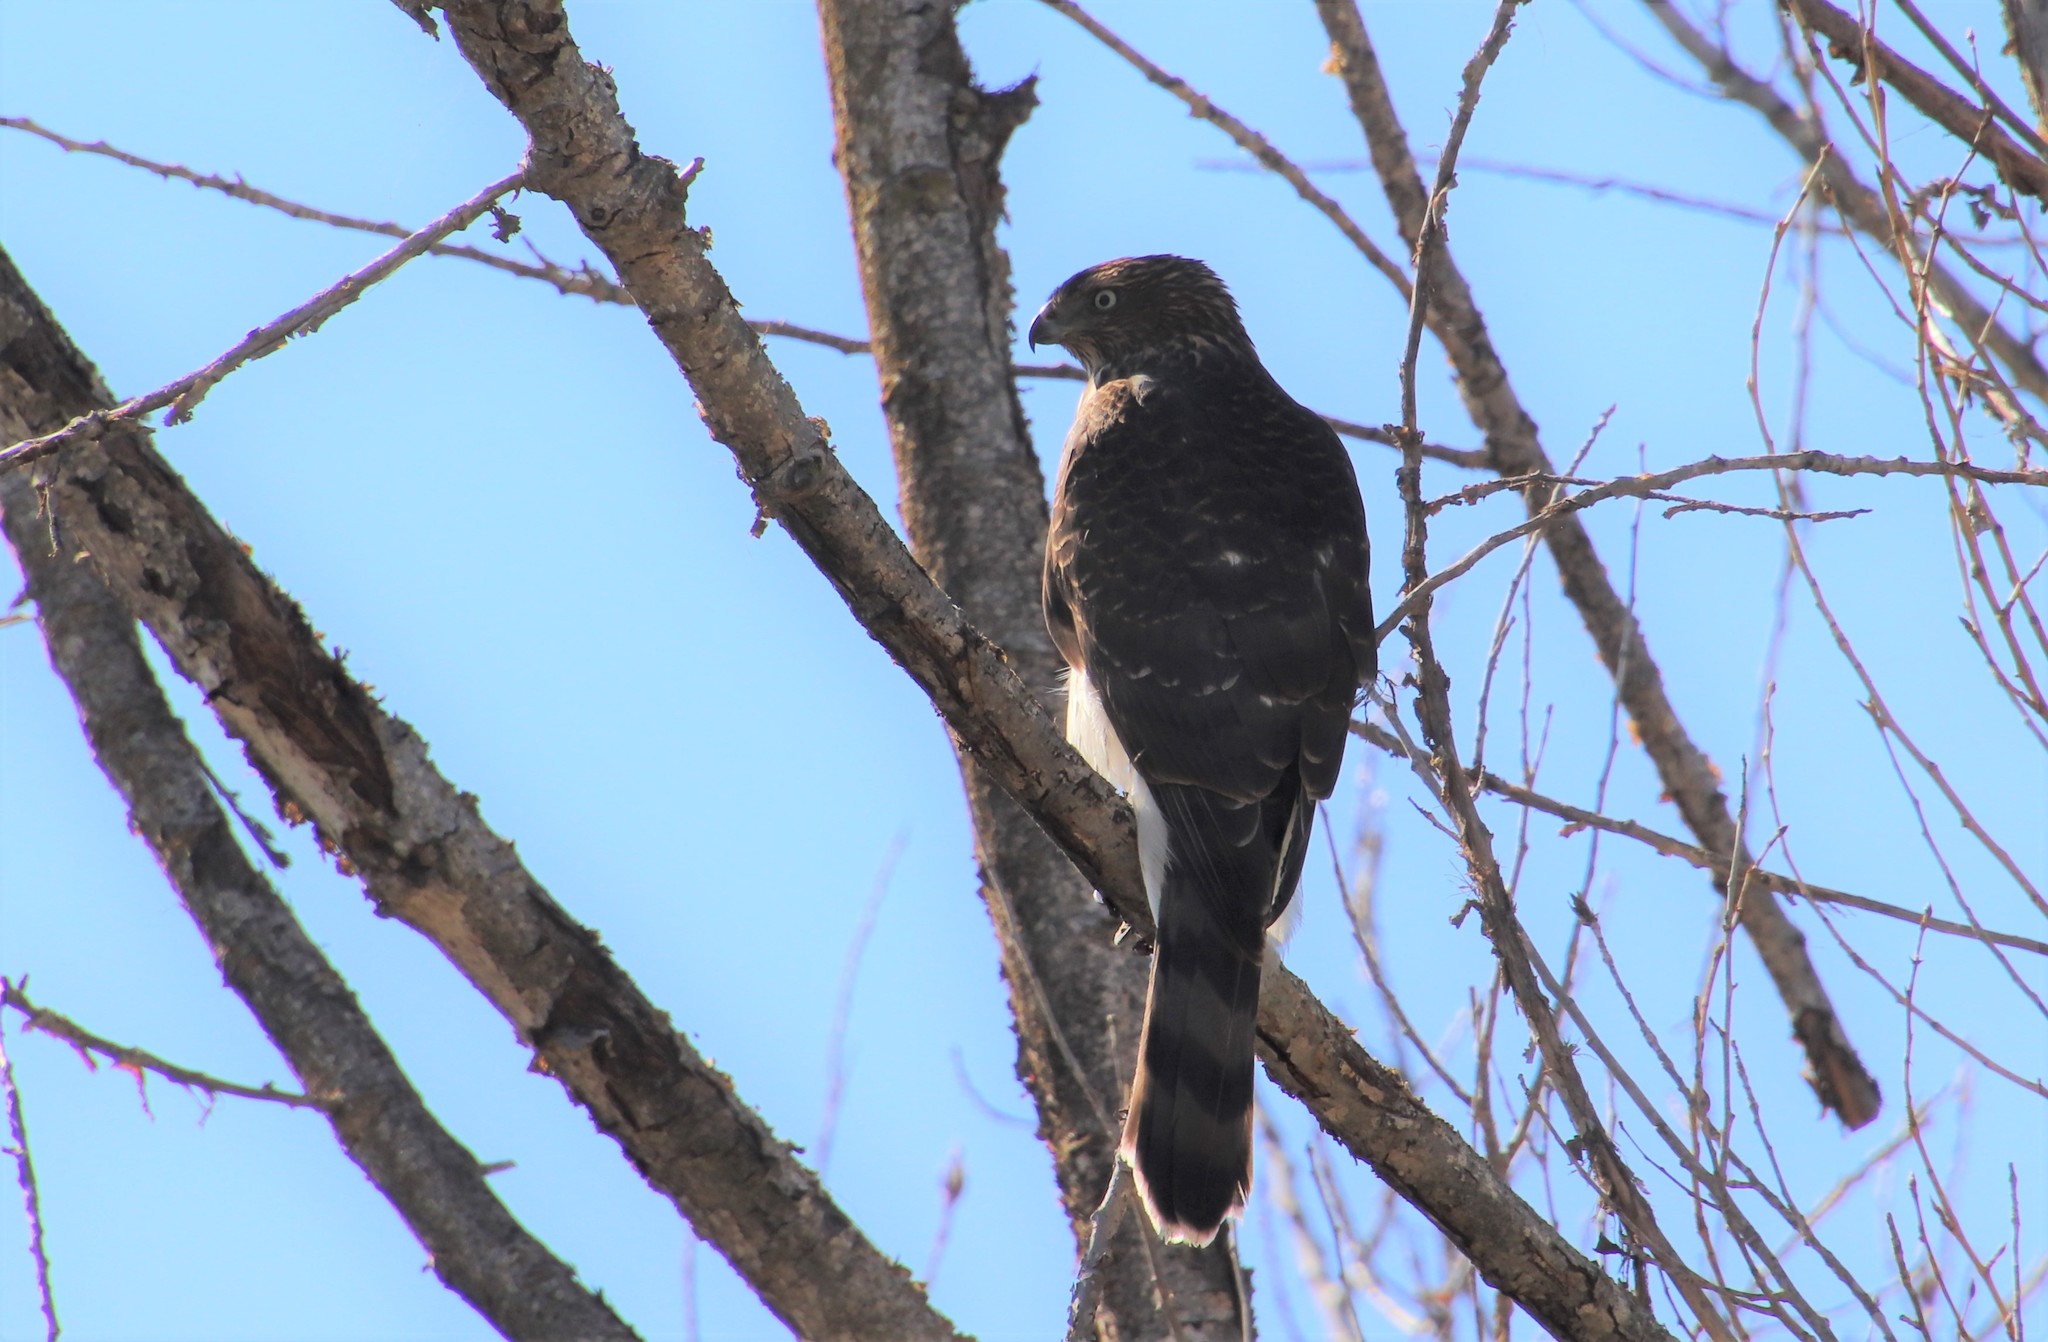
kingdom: Animalia
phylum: Chordata
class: Aves
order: Accipitriformes
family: Accipitridae
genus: Accipiter
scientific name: Accipiter cooperii
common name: Cooper's hawk
